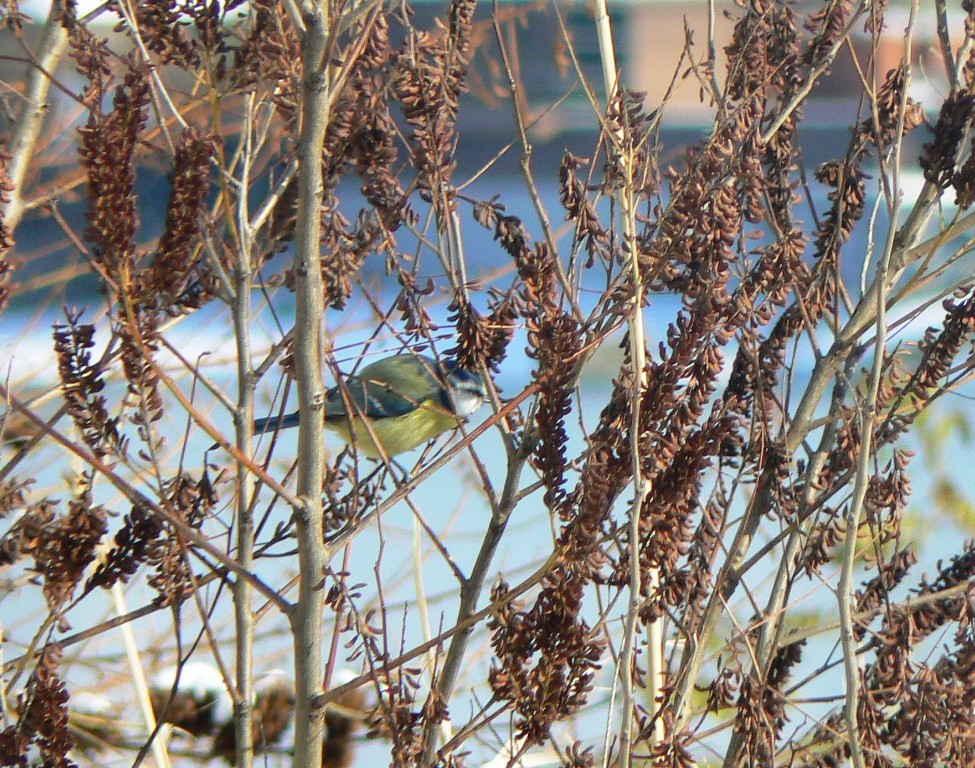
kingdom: Animalia
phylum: Chordata
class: Aves
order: Passeriformes
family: Paridae
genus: Cyanistes
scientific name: Cyanistes caeruleus
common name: Eurasian blue tit
